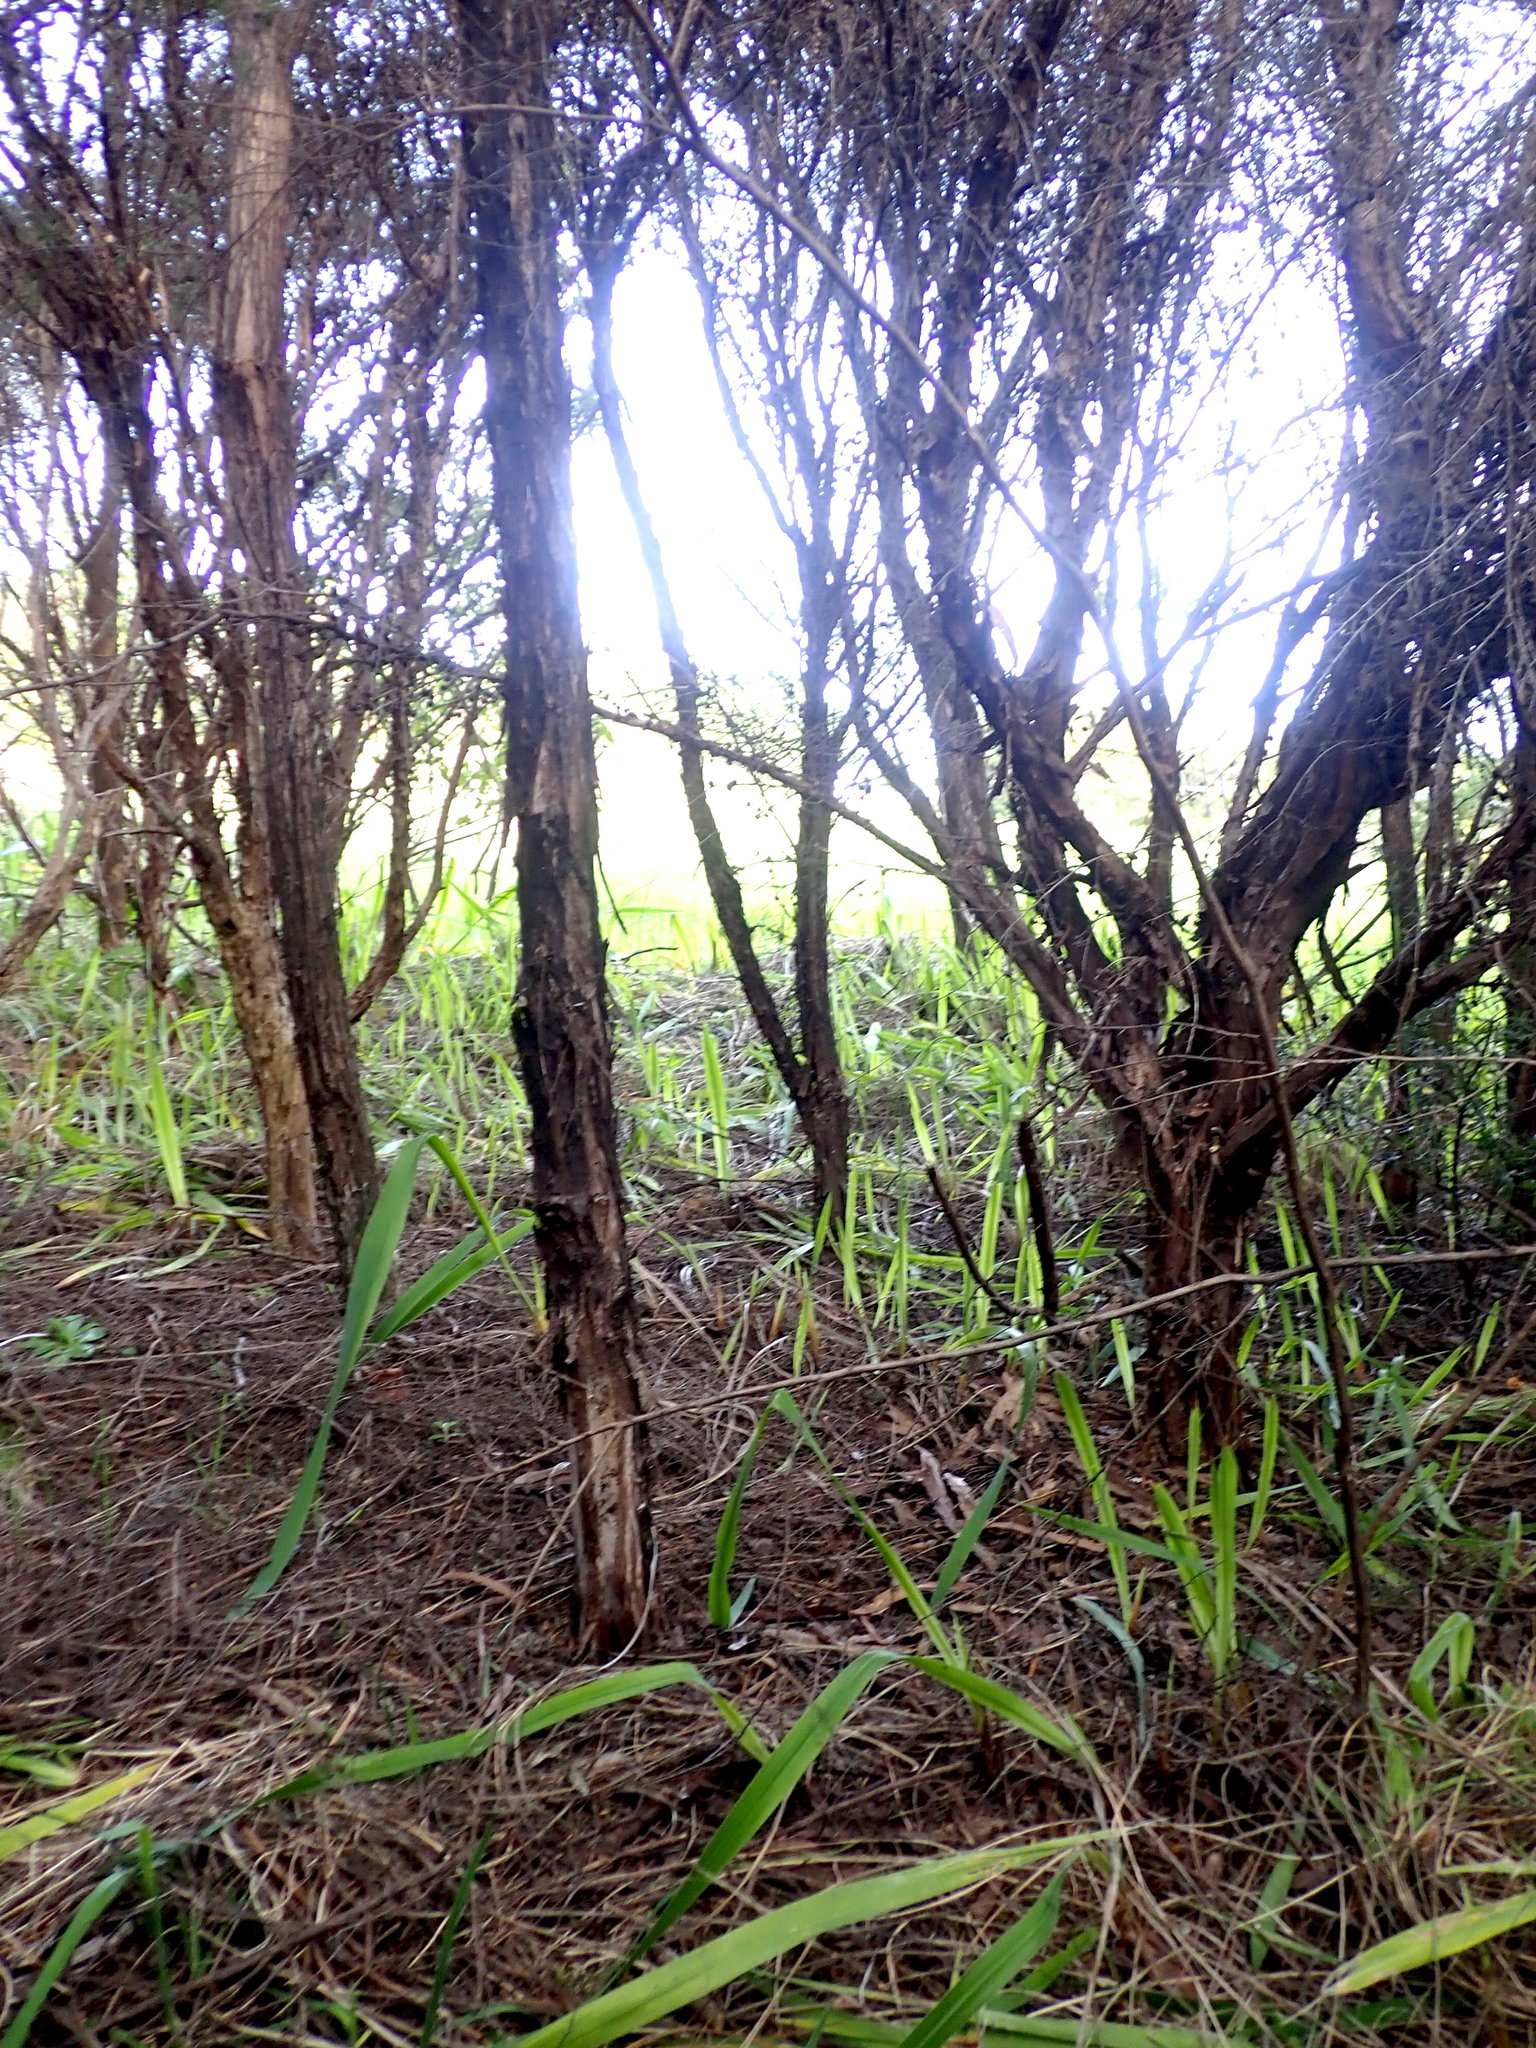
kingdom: Plantae
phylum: Tracheophyta
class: Magnoliopsida
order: Myrtales
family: Myrtaceae
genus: Leptospermum
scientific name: Leptospermum scoparium
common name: Broom tea-tree
